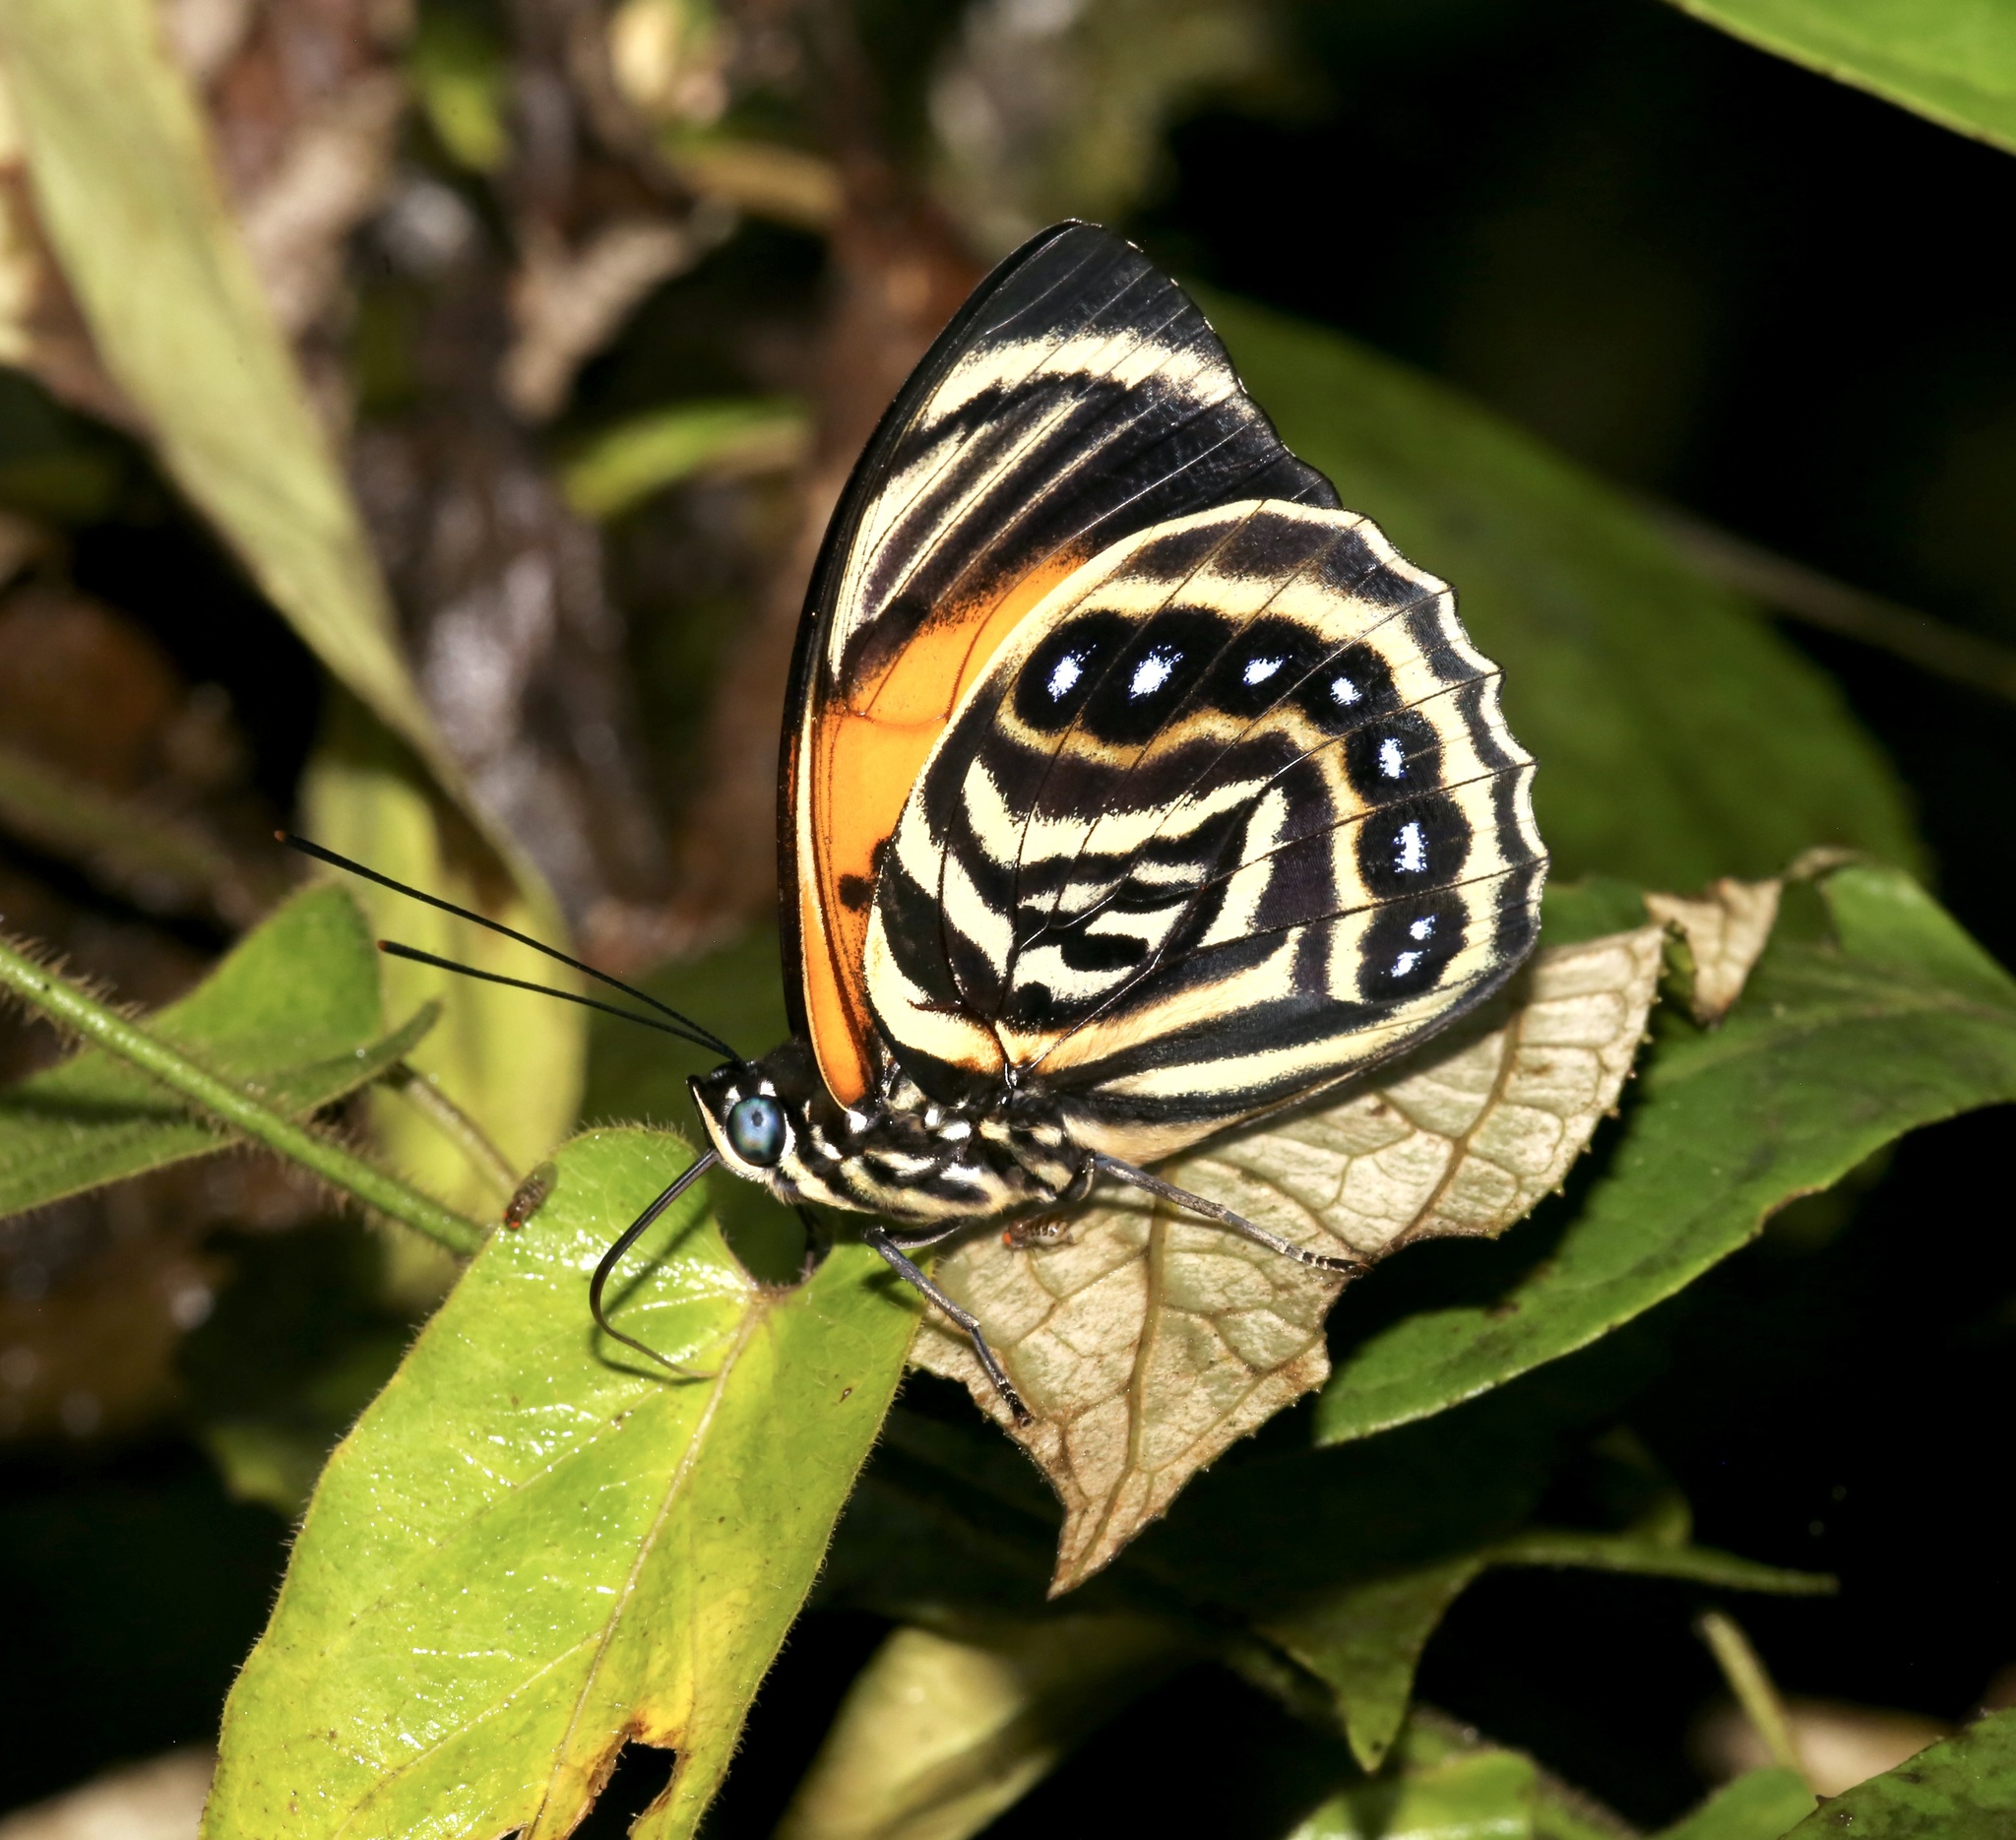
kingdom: Animalia
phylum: Arthropoda
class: Insecta
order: Lepidoptera
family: Nymphalidae
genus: Prepona
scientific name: Prepona amydon
